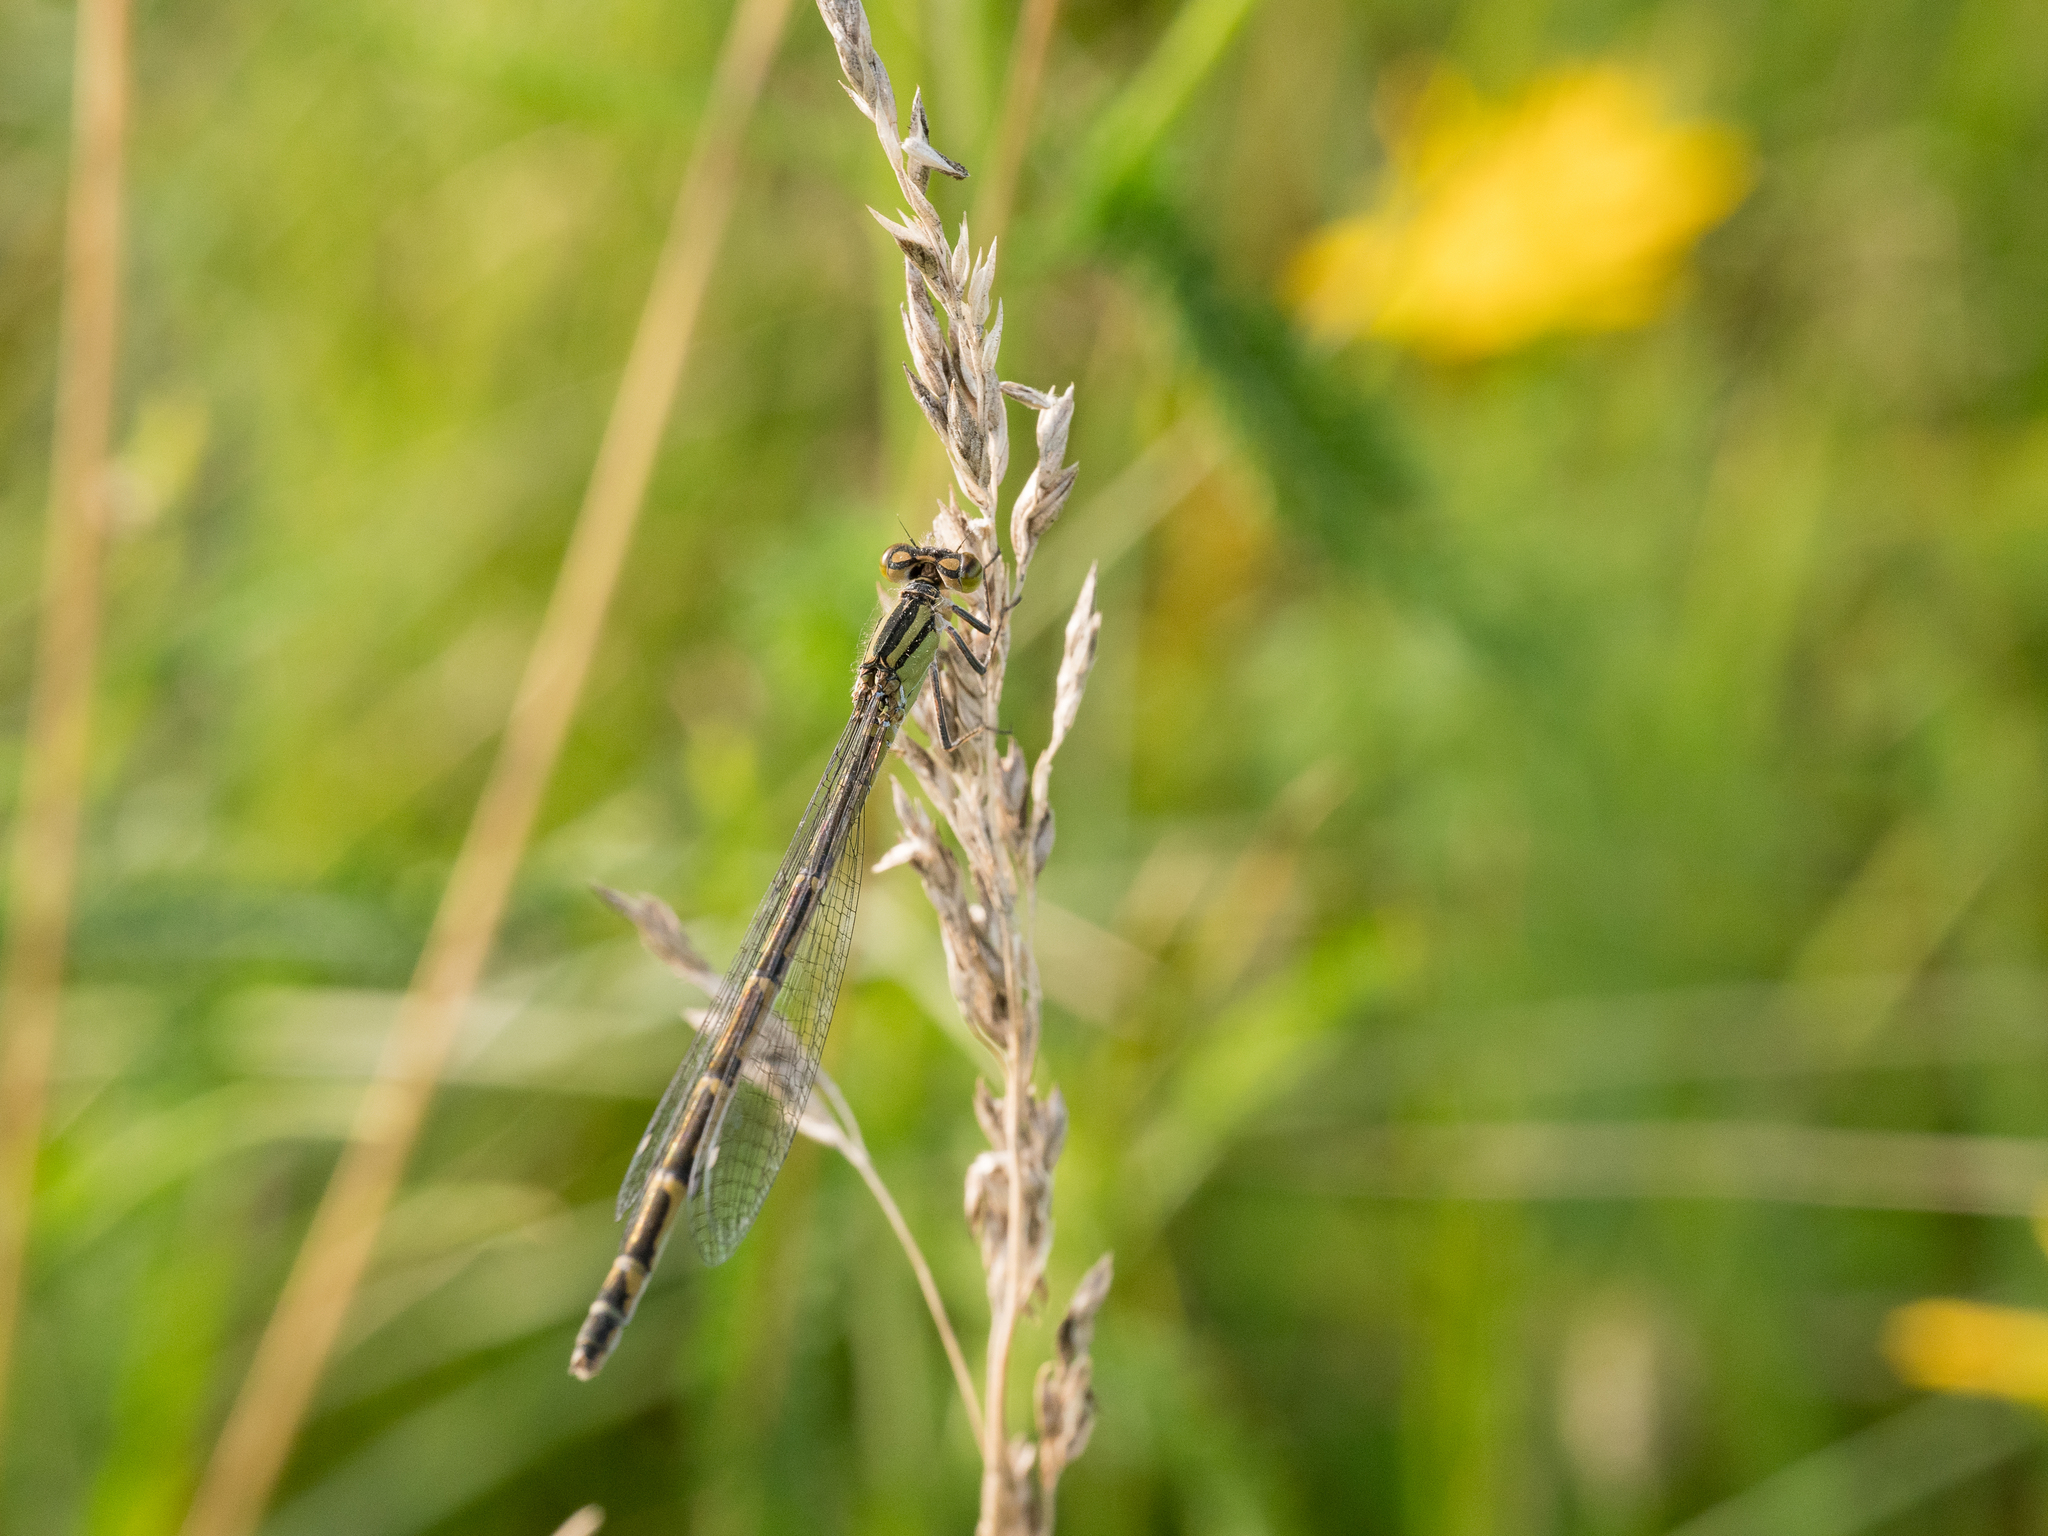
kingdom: Animalia
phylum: Arthropoda
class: Insecta
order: Odonata
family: Coenagrionidae
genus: Enallagma
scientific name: Enallagma cyathigerum
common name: Common blue damselfly
